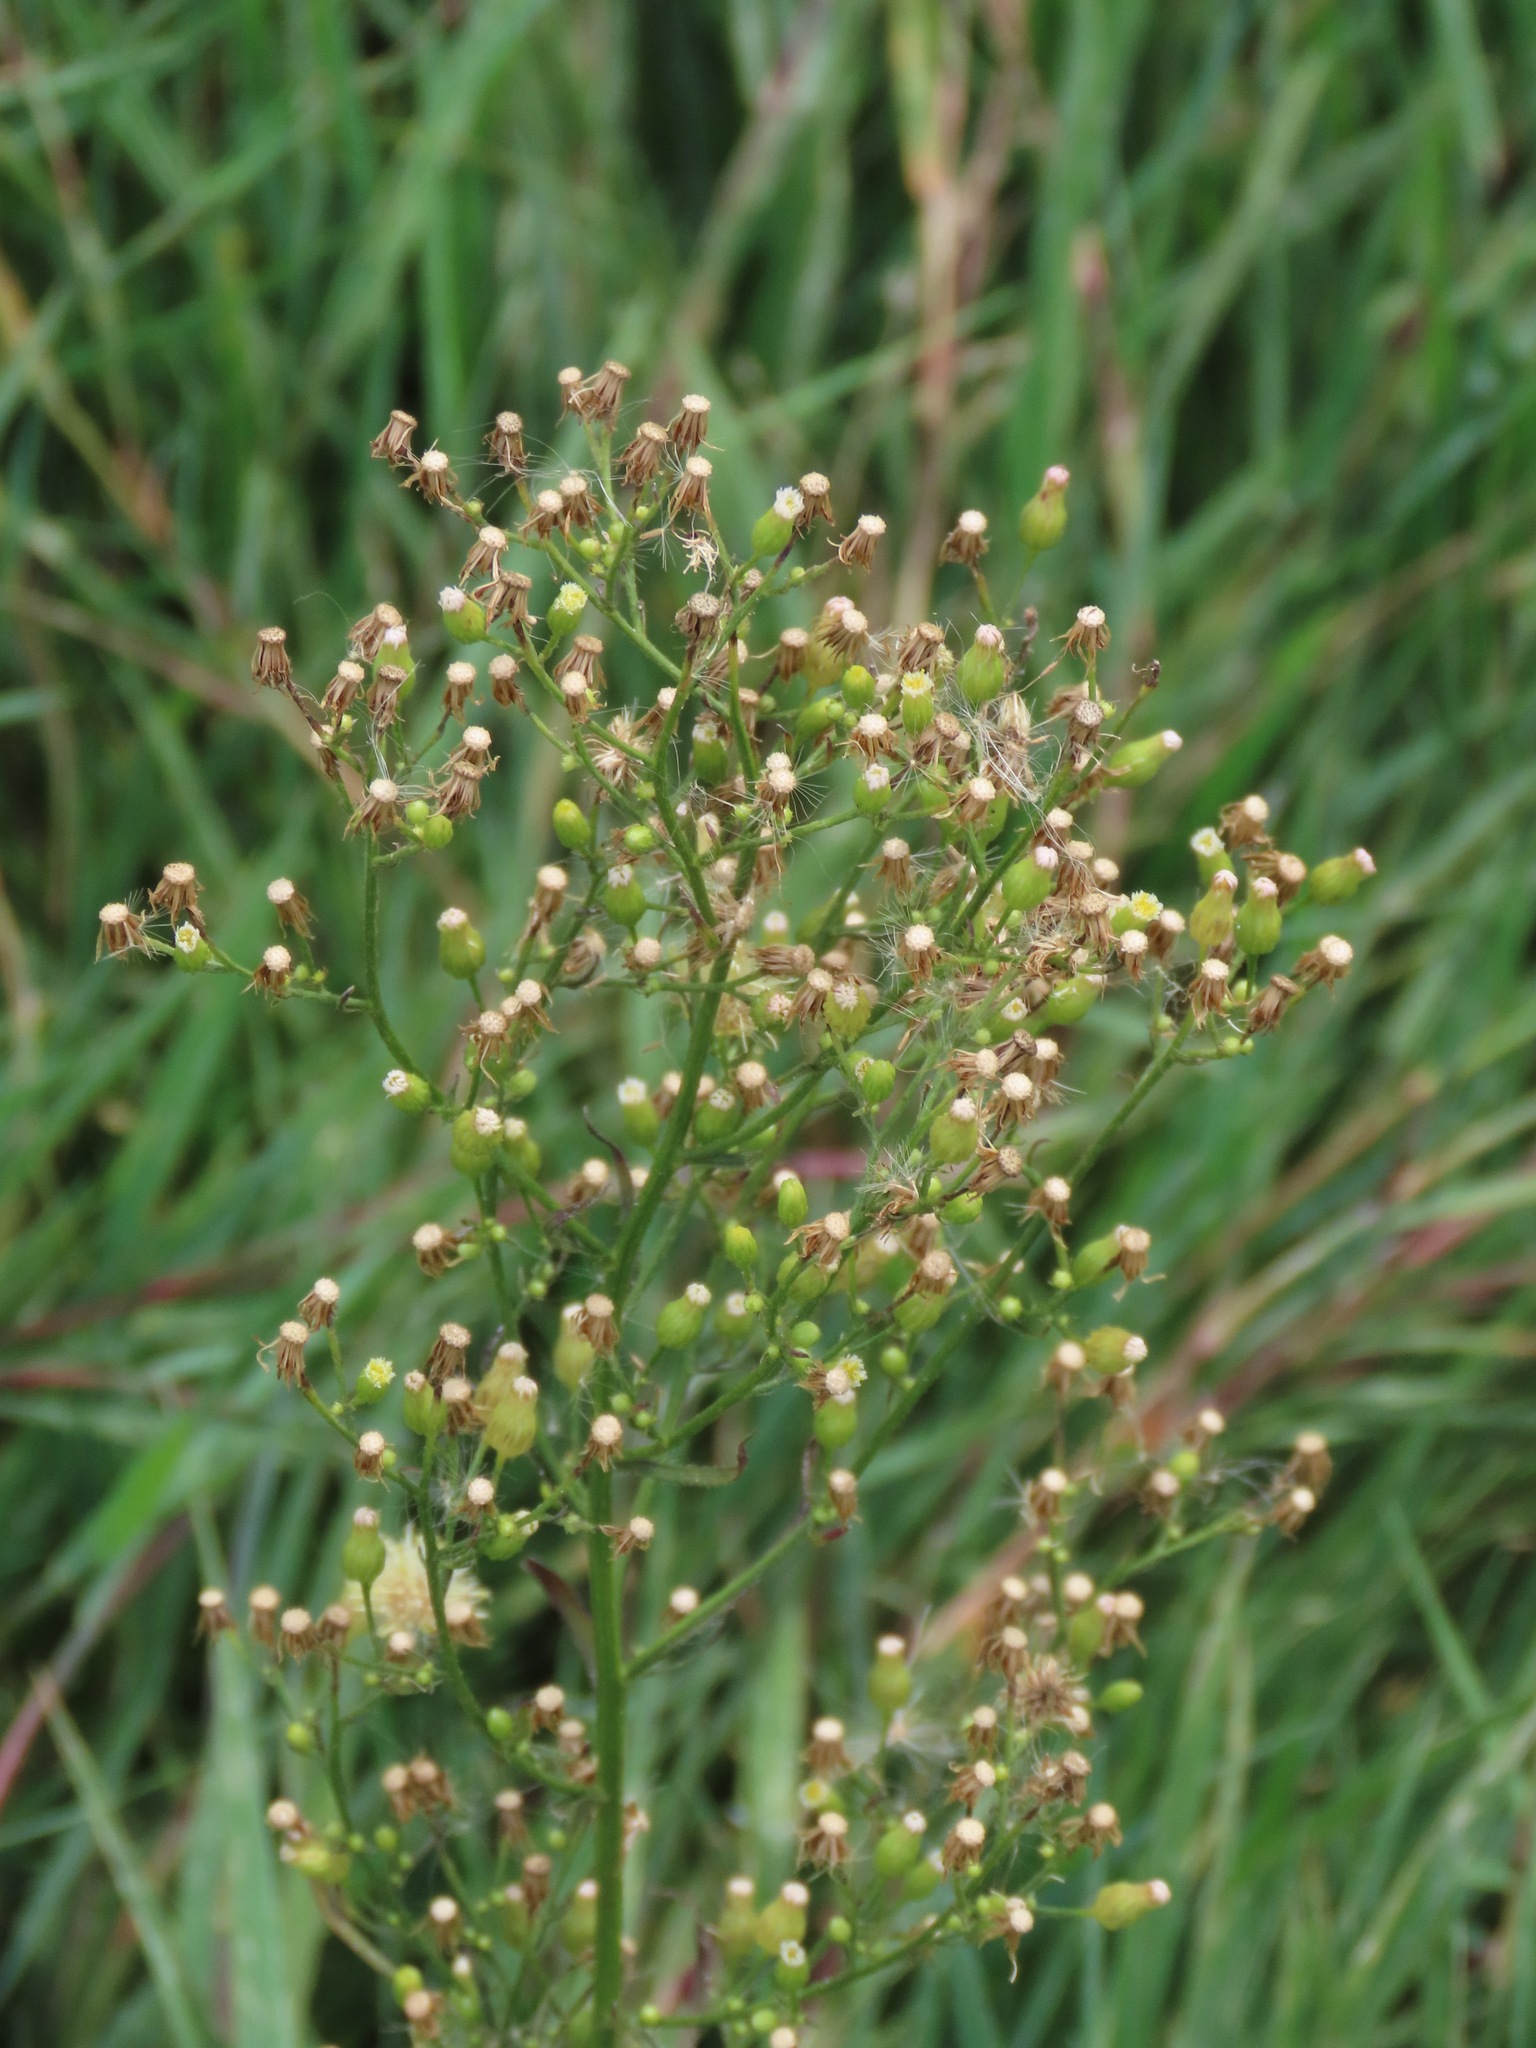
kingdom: Plantae
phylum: Tracheophyta
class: Magnoliopsida
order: Asterales
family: Asteraceae
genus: Erigeron
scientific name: Erigeron canadensis
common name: Canadian fleabane
